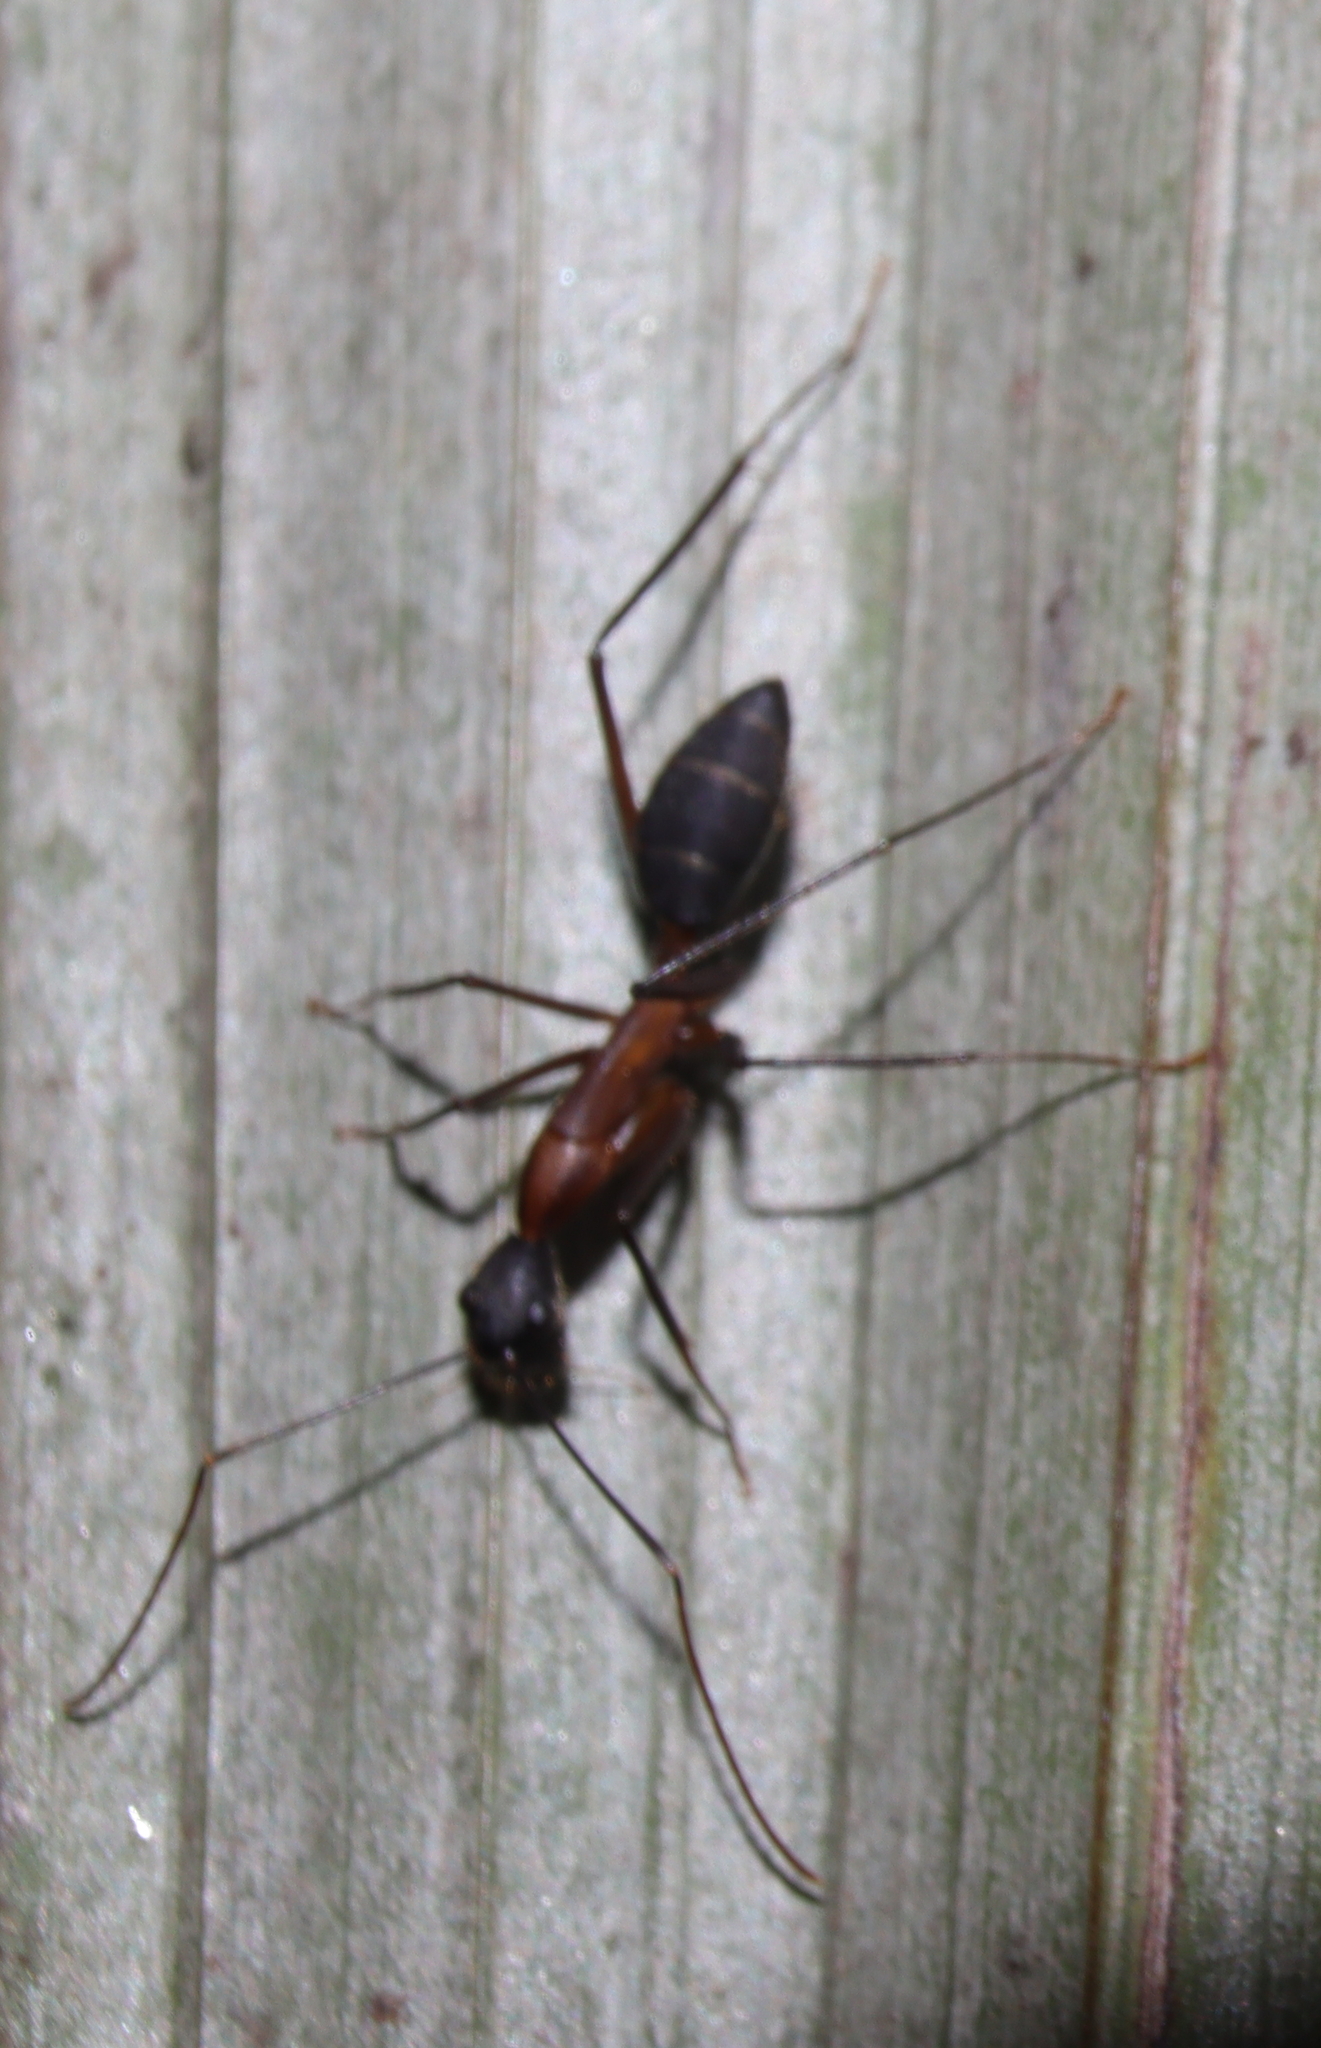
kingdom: Animalia
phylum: Arthropoda
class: Insecta
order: Hymenoptera
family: Formicidae
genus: Camponotus
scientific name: Camponotus lespesii
